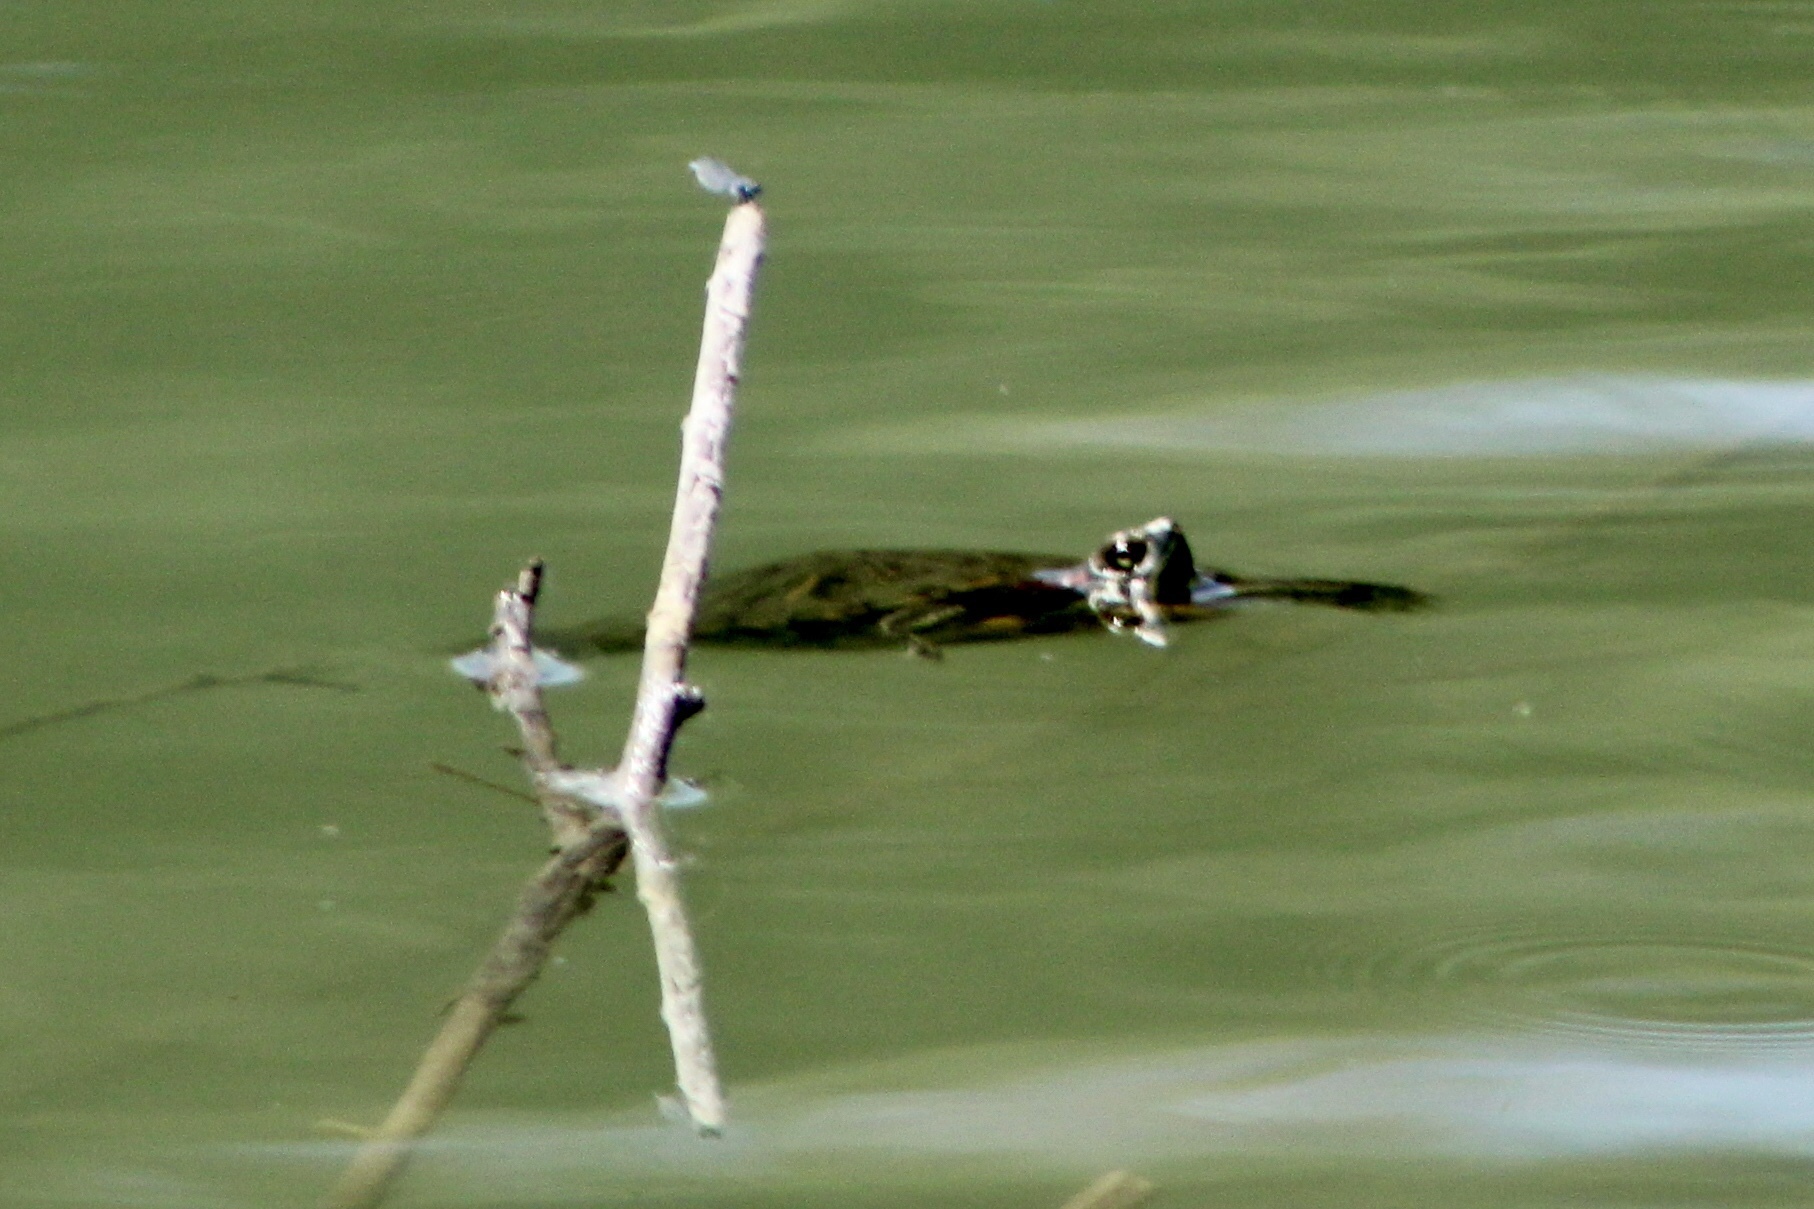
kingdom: Animalia
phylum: Chordata
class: Testudines
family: Emydidae
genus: Trachemys
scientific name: Trachemys scripta
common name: Slider
